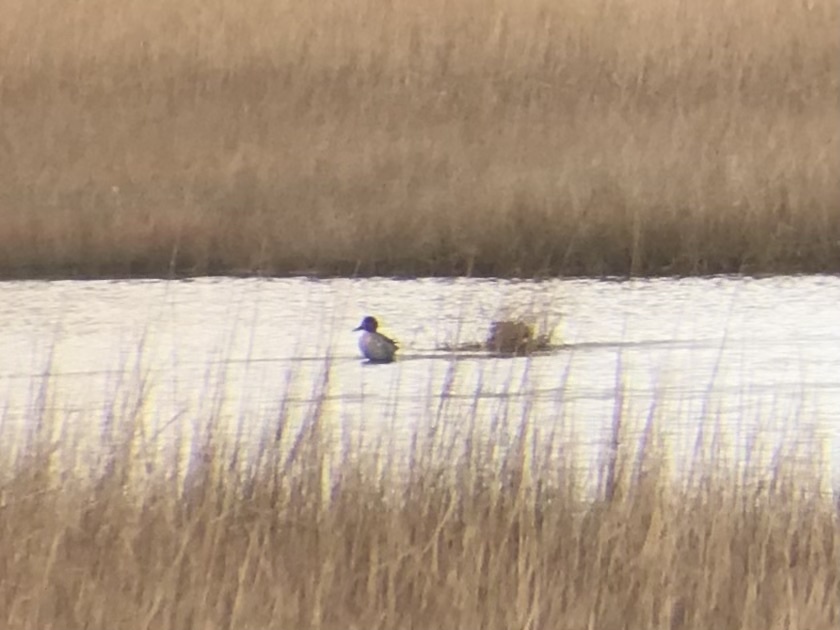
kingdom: Animalia
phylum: Chordata
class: Aves
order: Anseriformes
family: Anatidae
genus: Anas
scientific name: Anas crecca
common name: Eurasian teal
